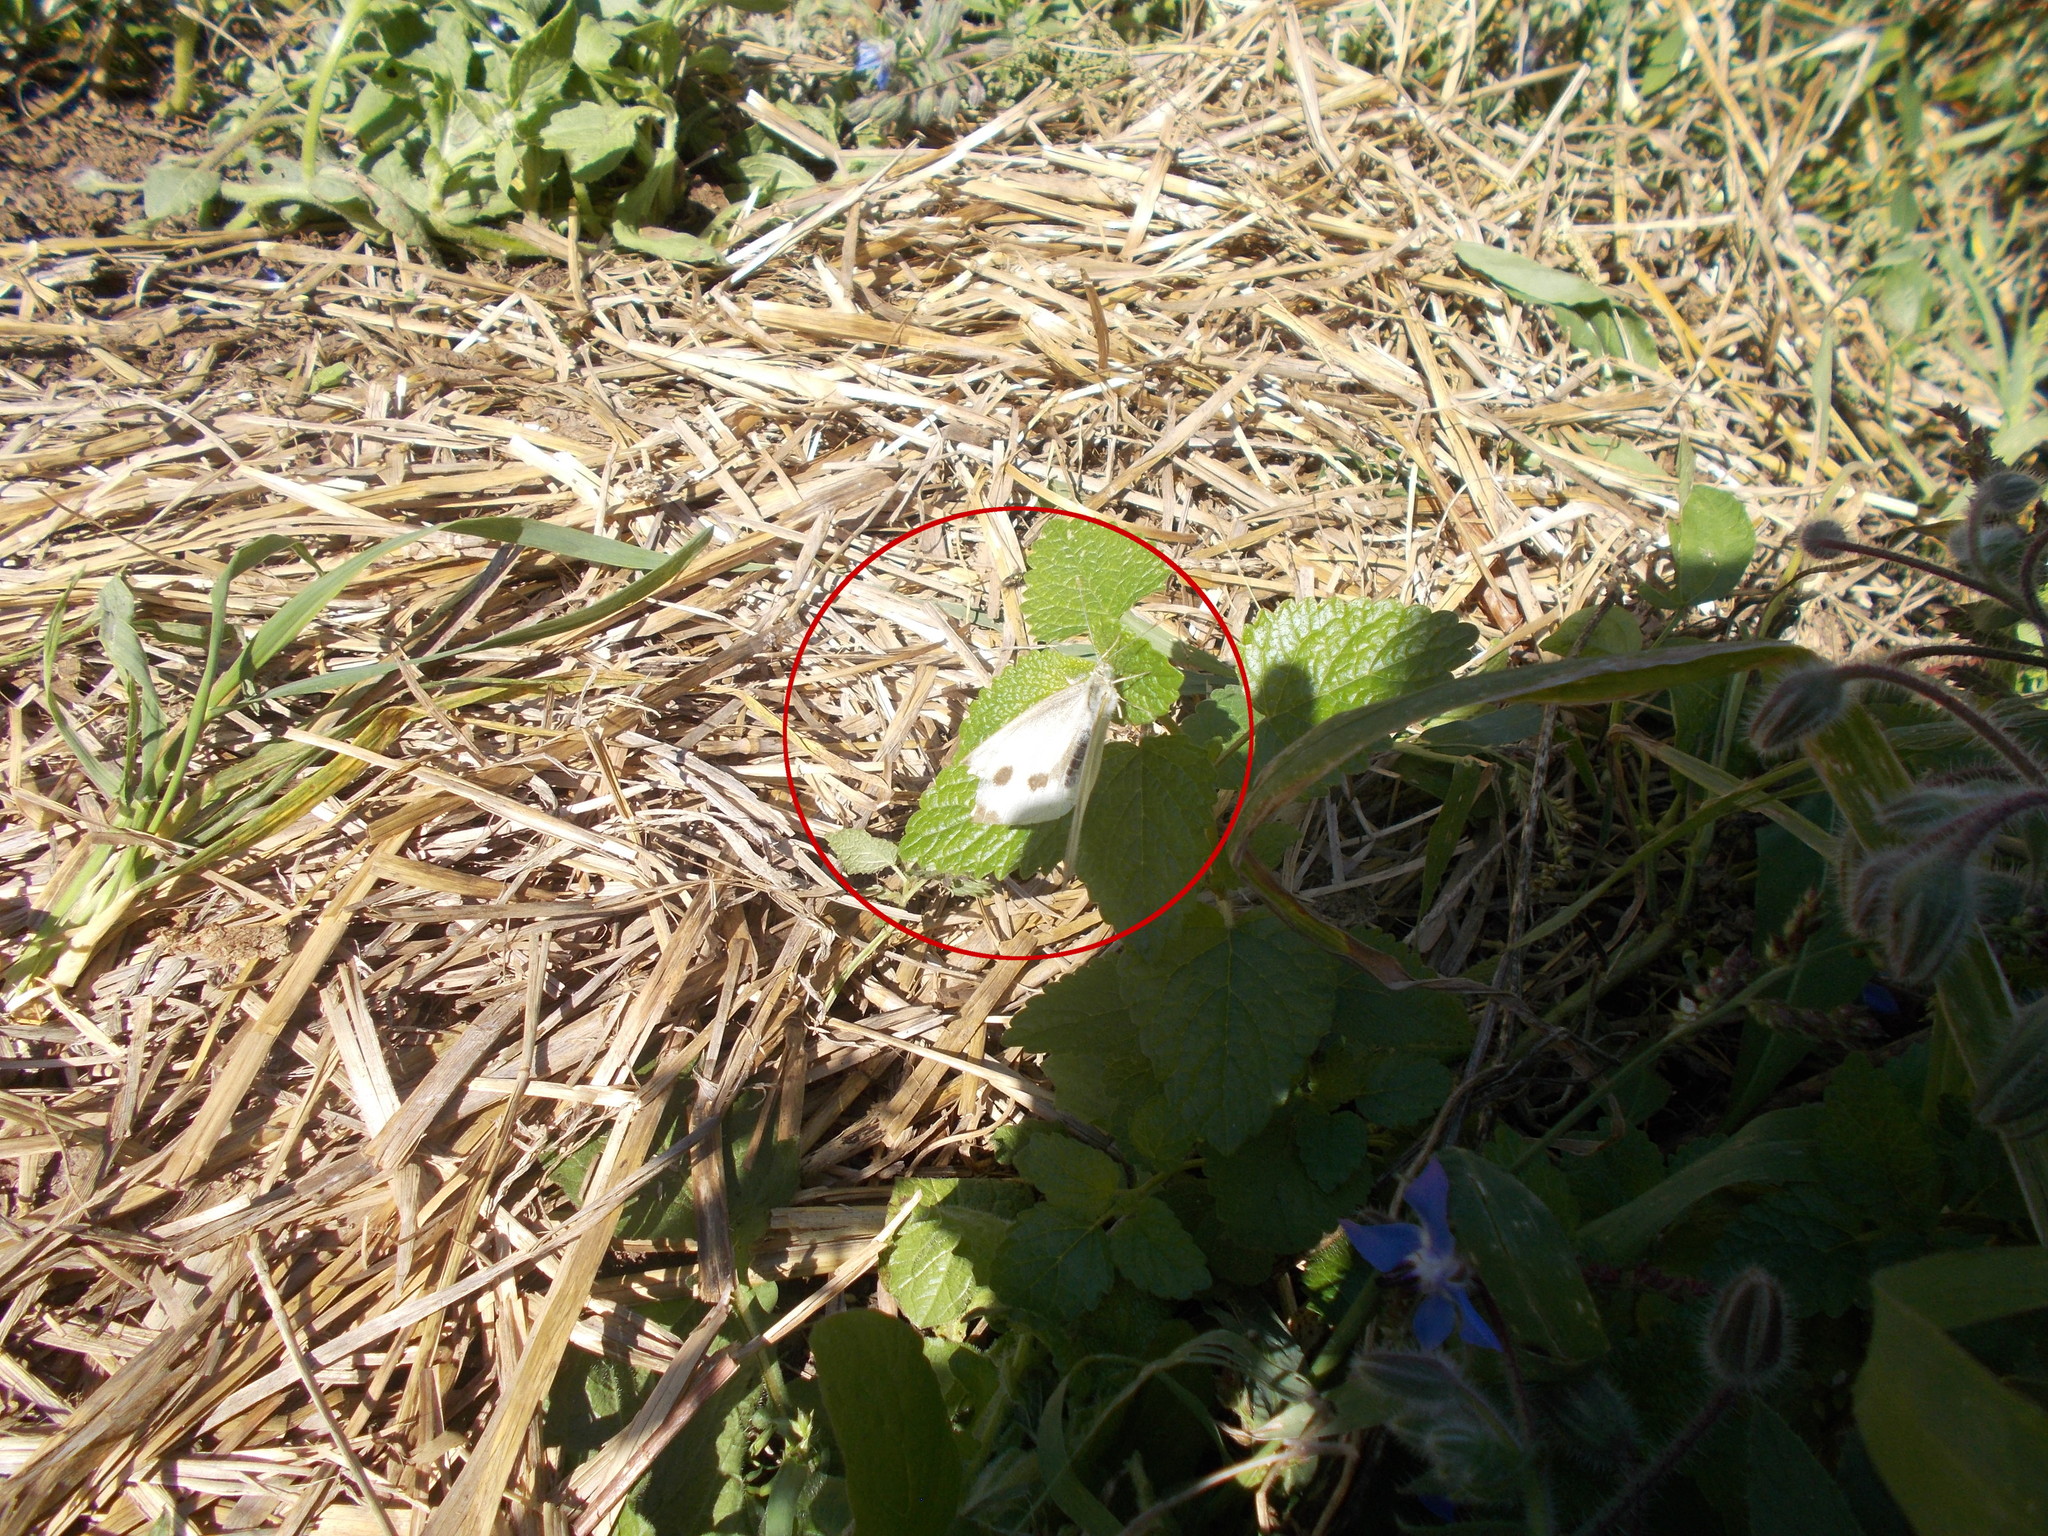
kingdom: Animalia
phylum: Arthropoda
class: Insecta
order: Lepidoptera
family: Pieridae
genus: Pieris
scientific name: Pieris brassicae
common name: Large white
